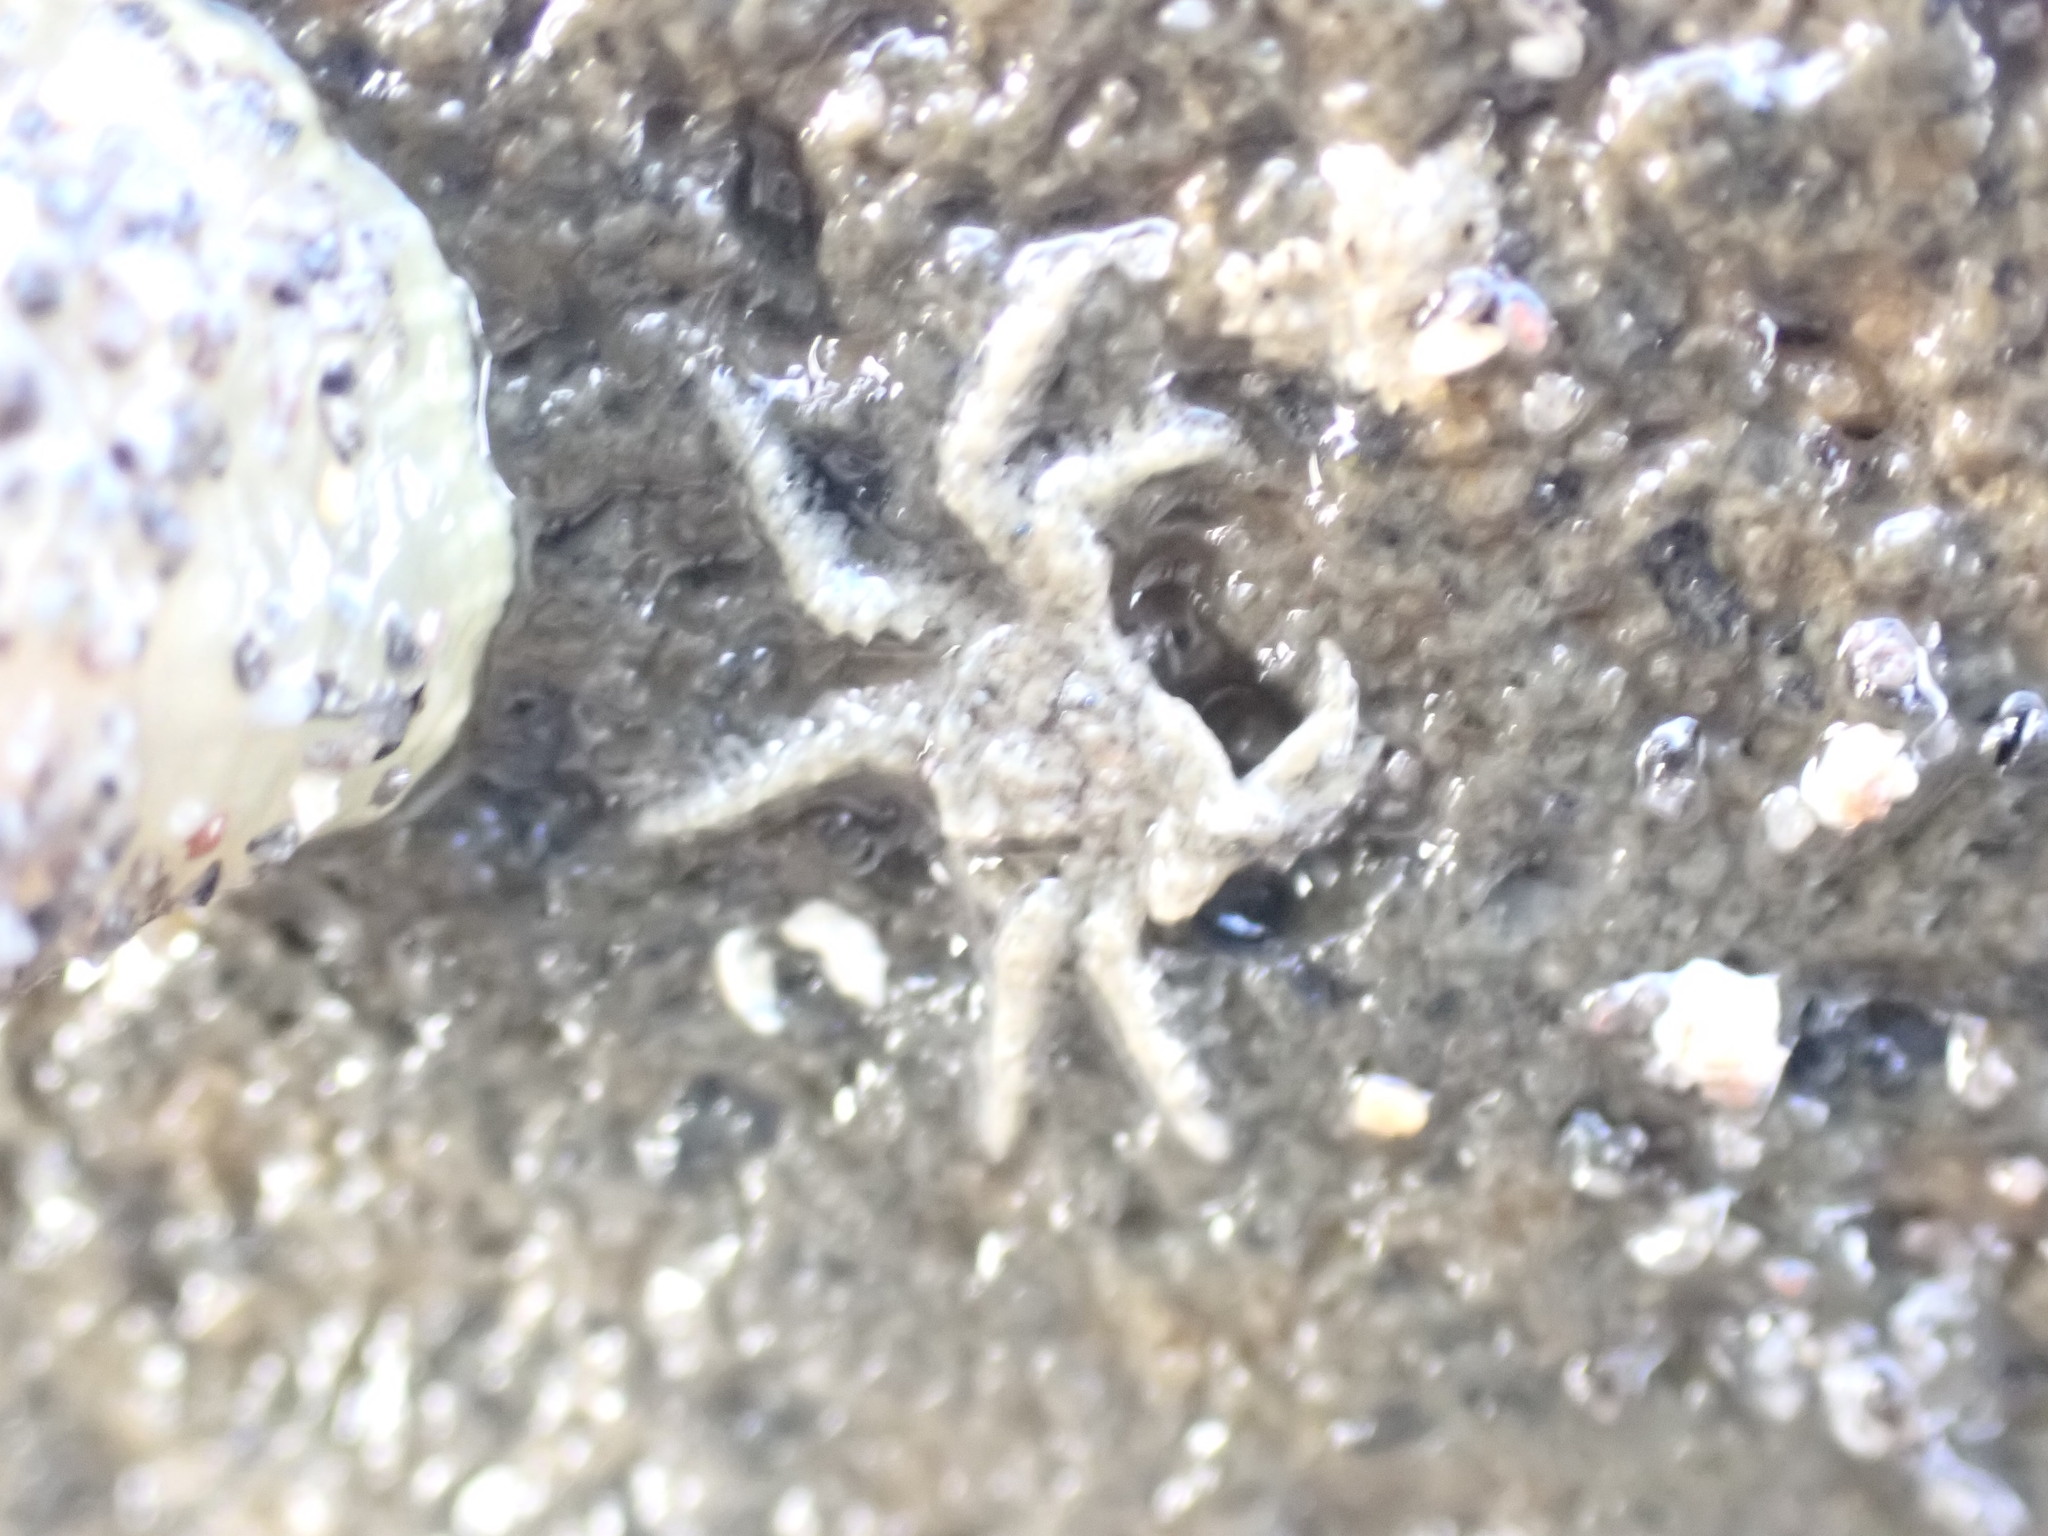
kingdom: Animalia
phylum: Arthropoda
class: Malacostraca
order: Decapoda
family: Hymenosomatidae
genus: Neohymenicus
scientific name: Neohymenicus pubescens
